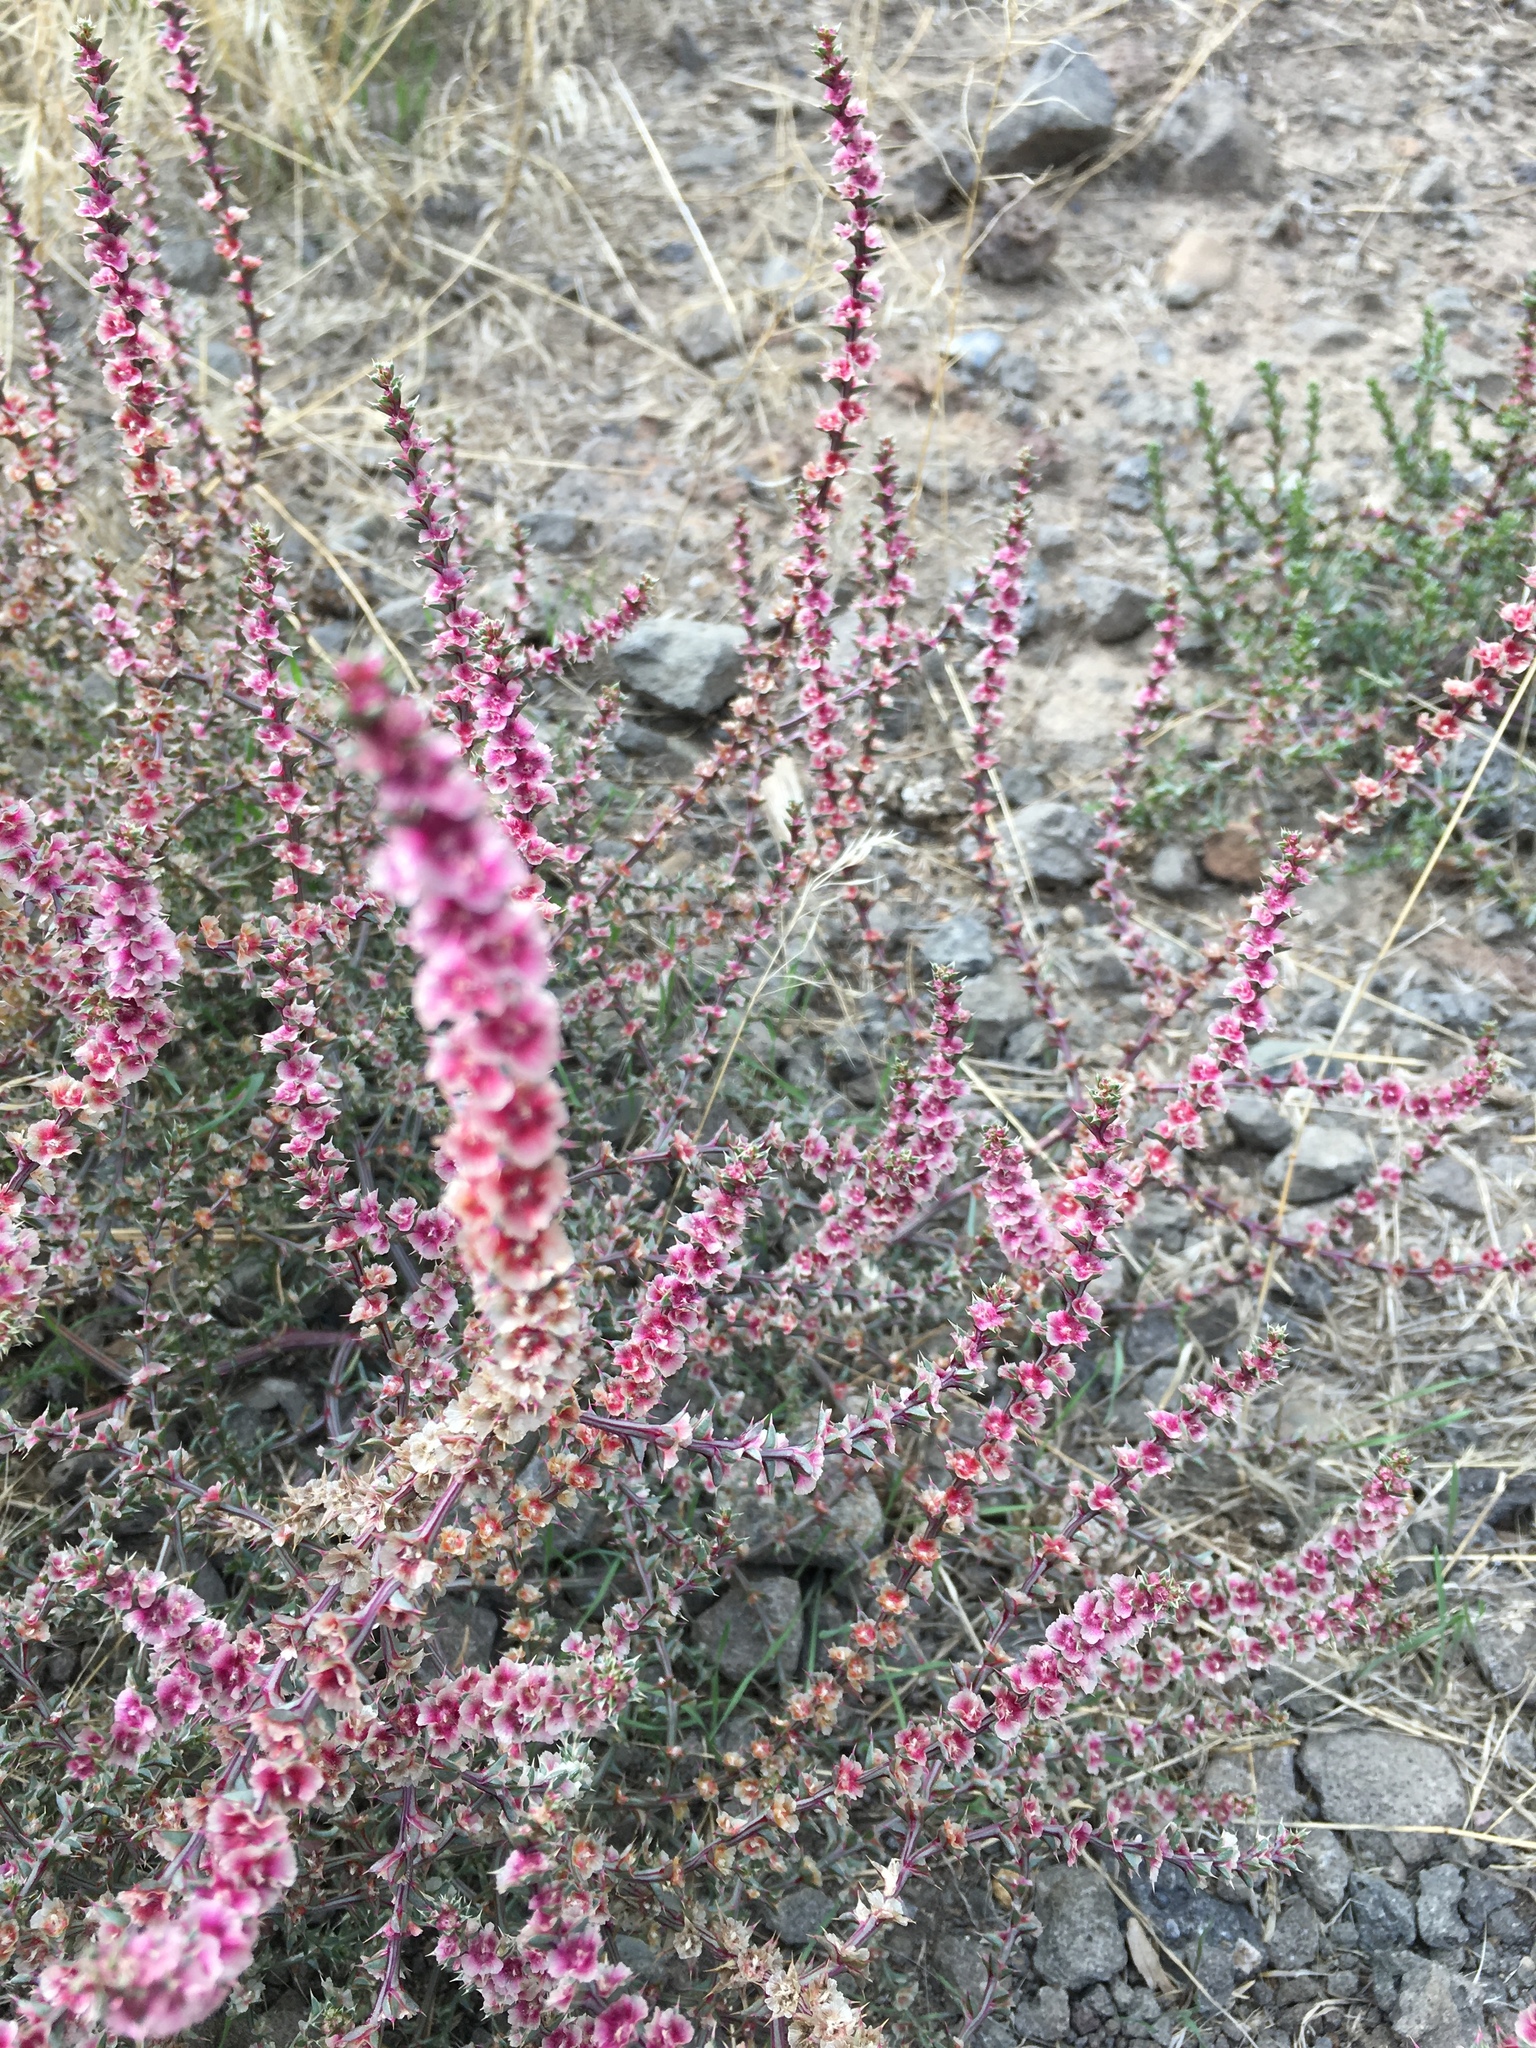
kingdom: Plantae
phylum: Tracheophyta
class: Magnoliopsida
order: Caryophyllales
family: Amaranthaceae
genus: Salsola
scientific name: Salsola tragus
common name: Prickly russian thistle
